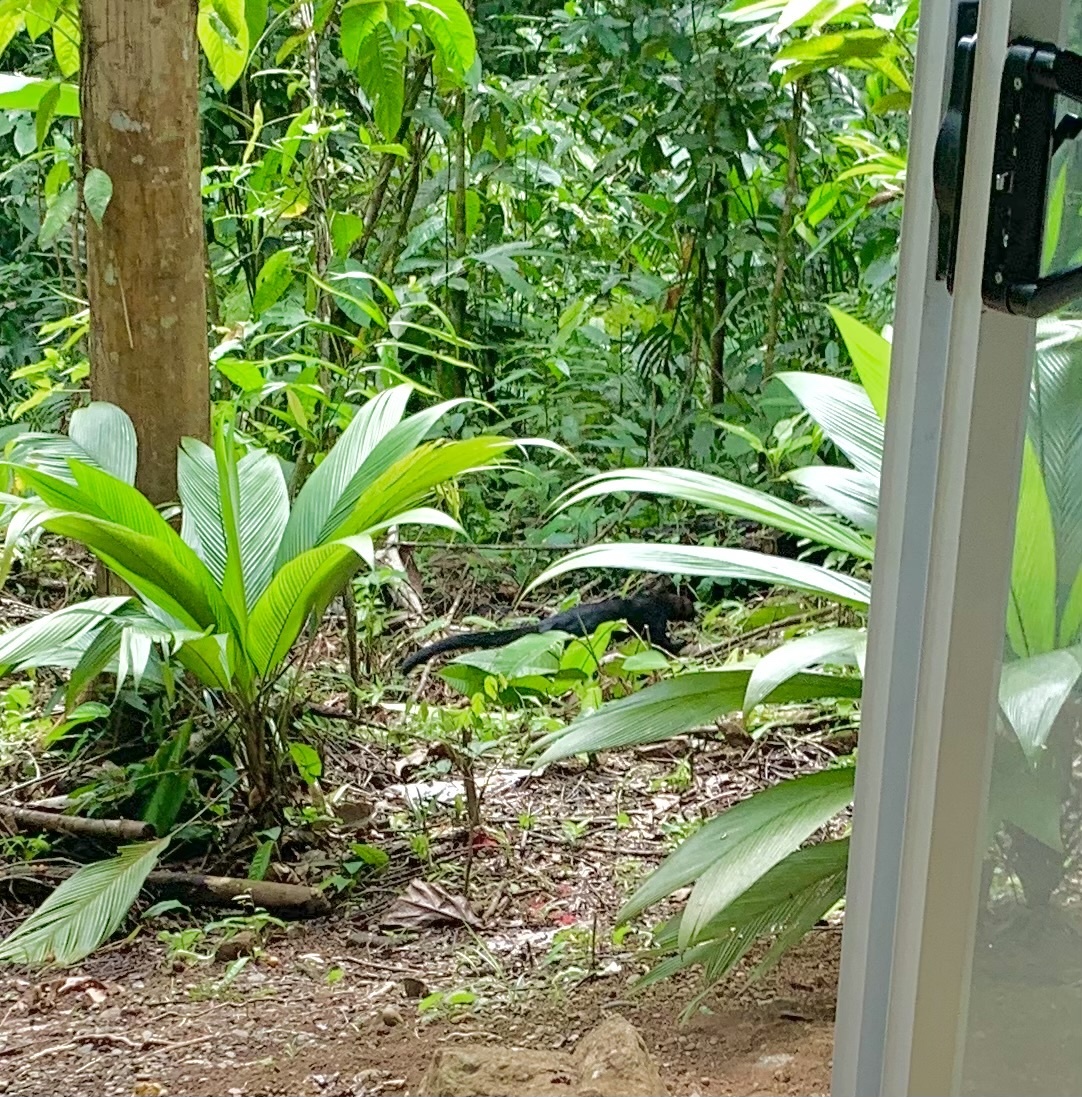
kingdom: Animalia
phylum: Chordata
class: Mammalia
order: Carnivora
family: Felidae
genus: Puma
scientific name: Puma yagouaroundi
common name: Jaguarundi
